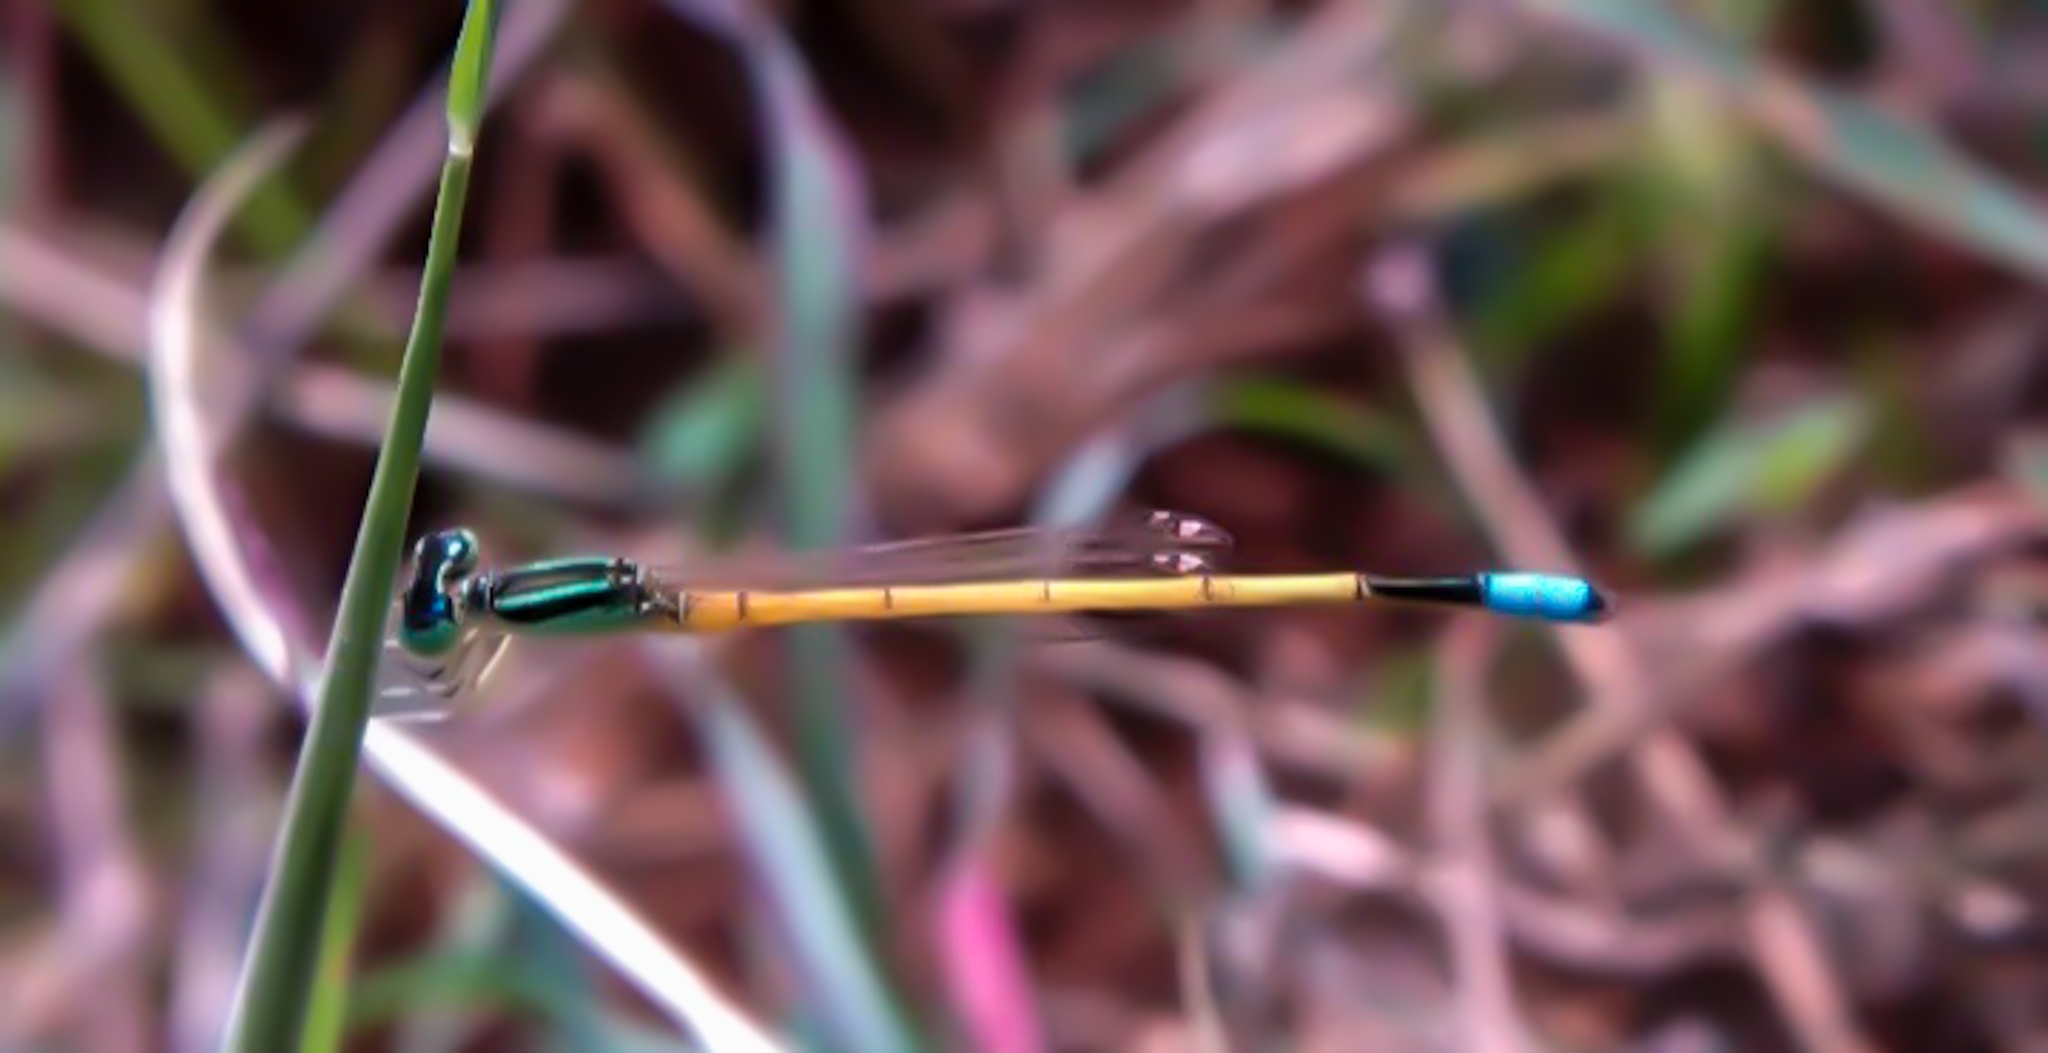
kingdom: Animalia
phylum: Arthropoda
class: Insecta
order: Odonata
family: Coenagrionidae
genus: Ischnura
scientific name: Ischnura rubilio
